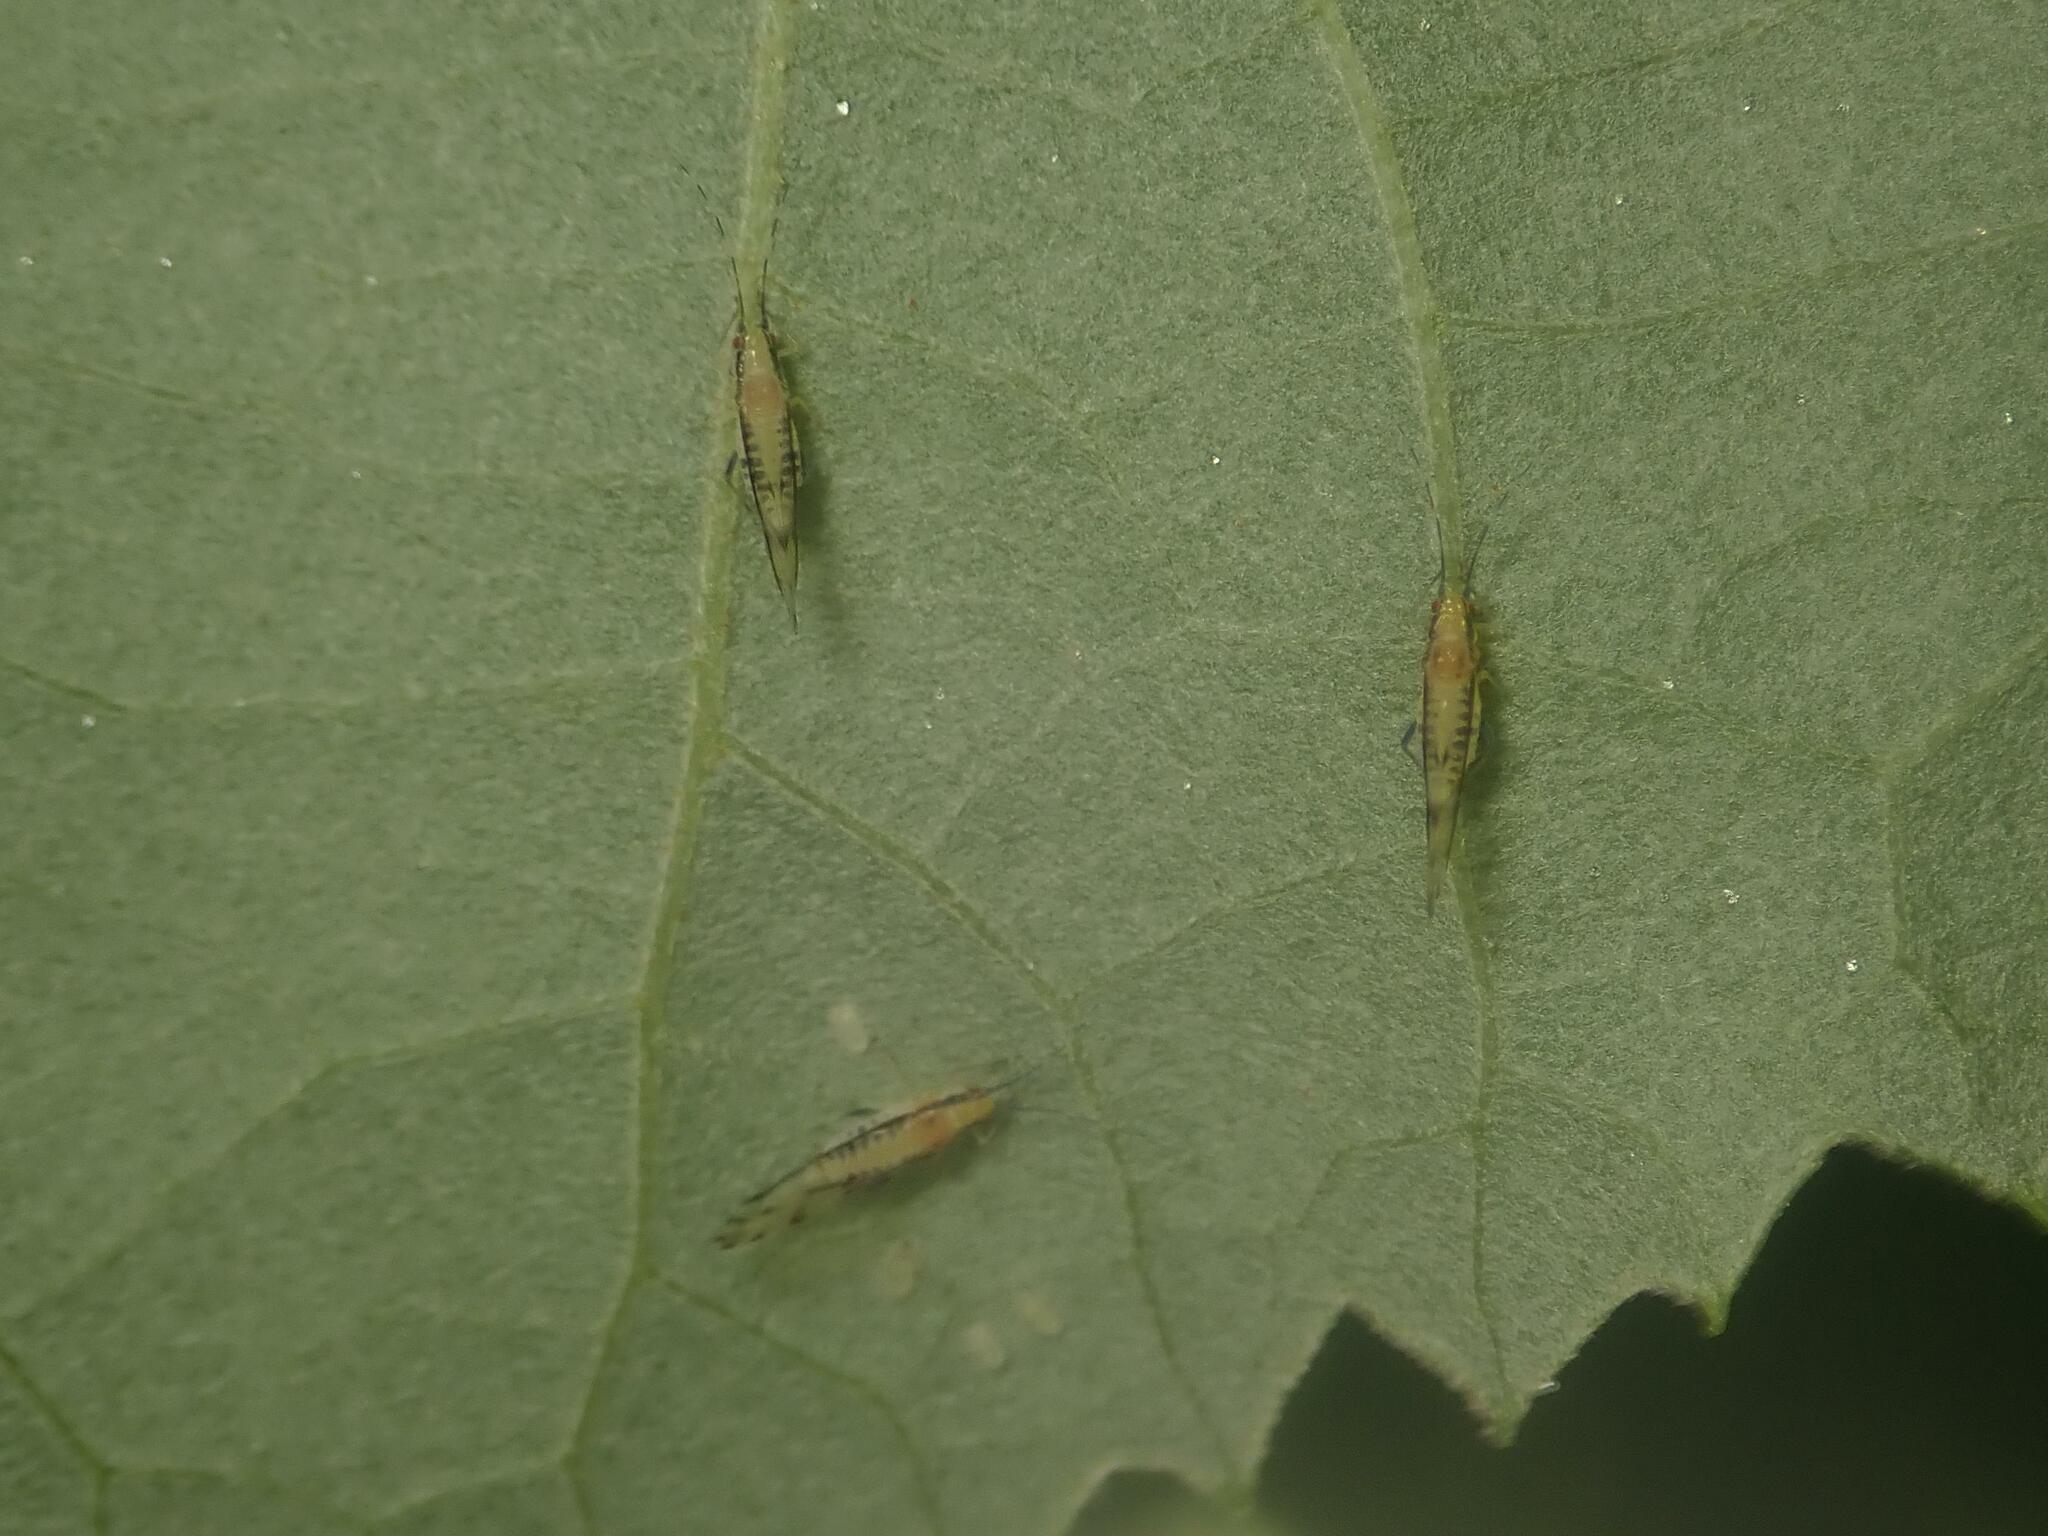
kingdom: Animalia
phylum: Arthropoda
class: Insecta
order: Hemiptera
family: Aphididae
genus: Eucallipterus
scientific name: Eucallipterus tiliae
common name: Aphid
